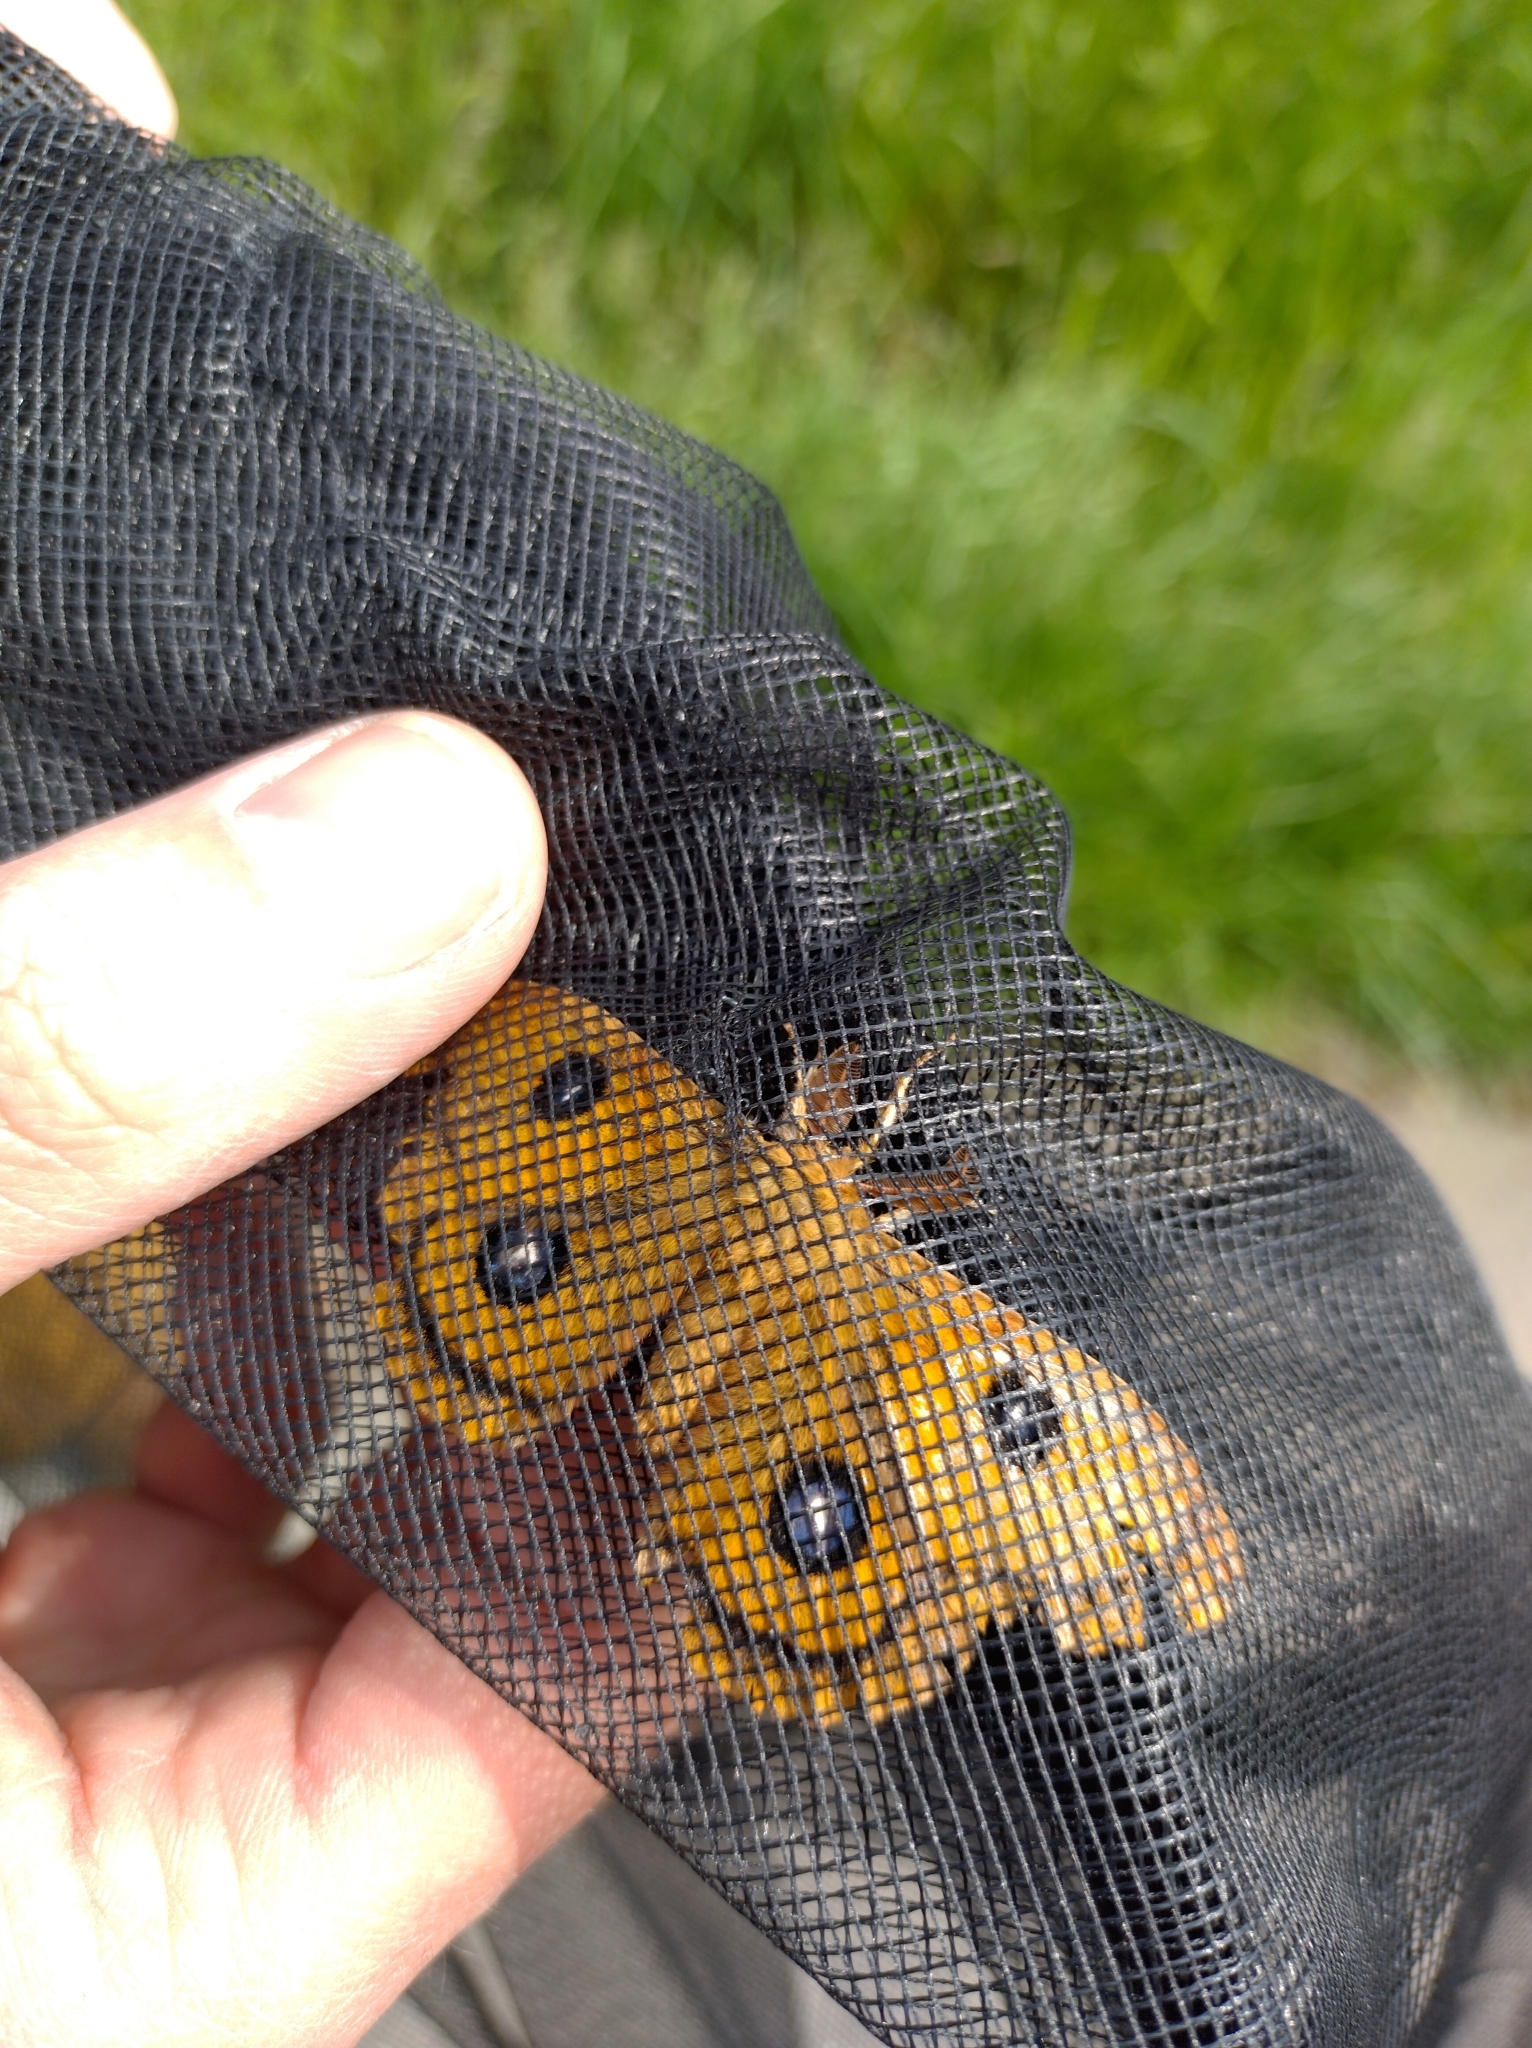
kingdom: Animalia
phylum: Arthropoda
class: Insecta
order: Lepidoptera
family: Saturniidae
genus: Aglia
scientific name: Aglia tau
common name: Tau emperor
